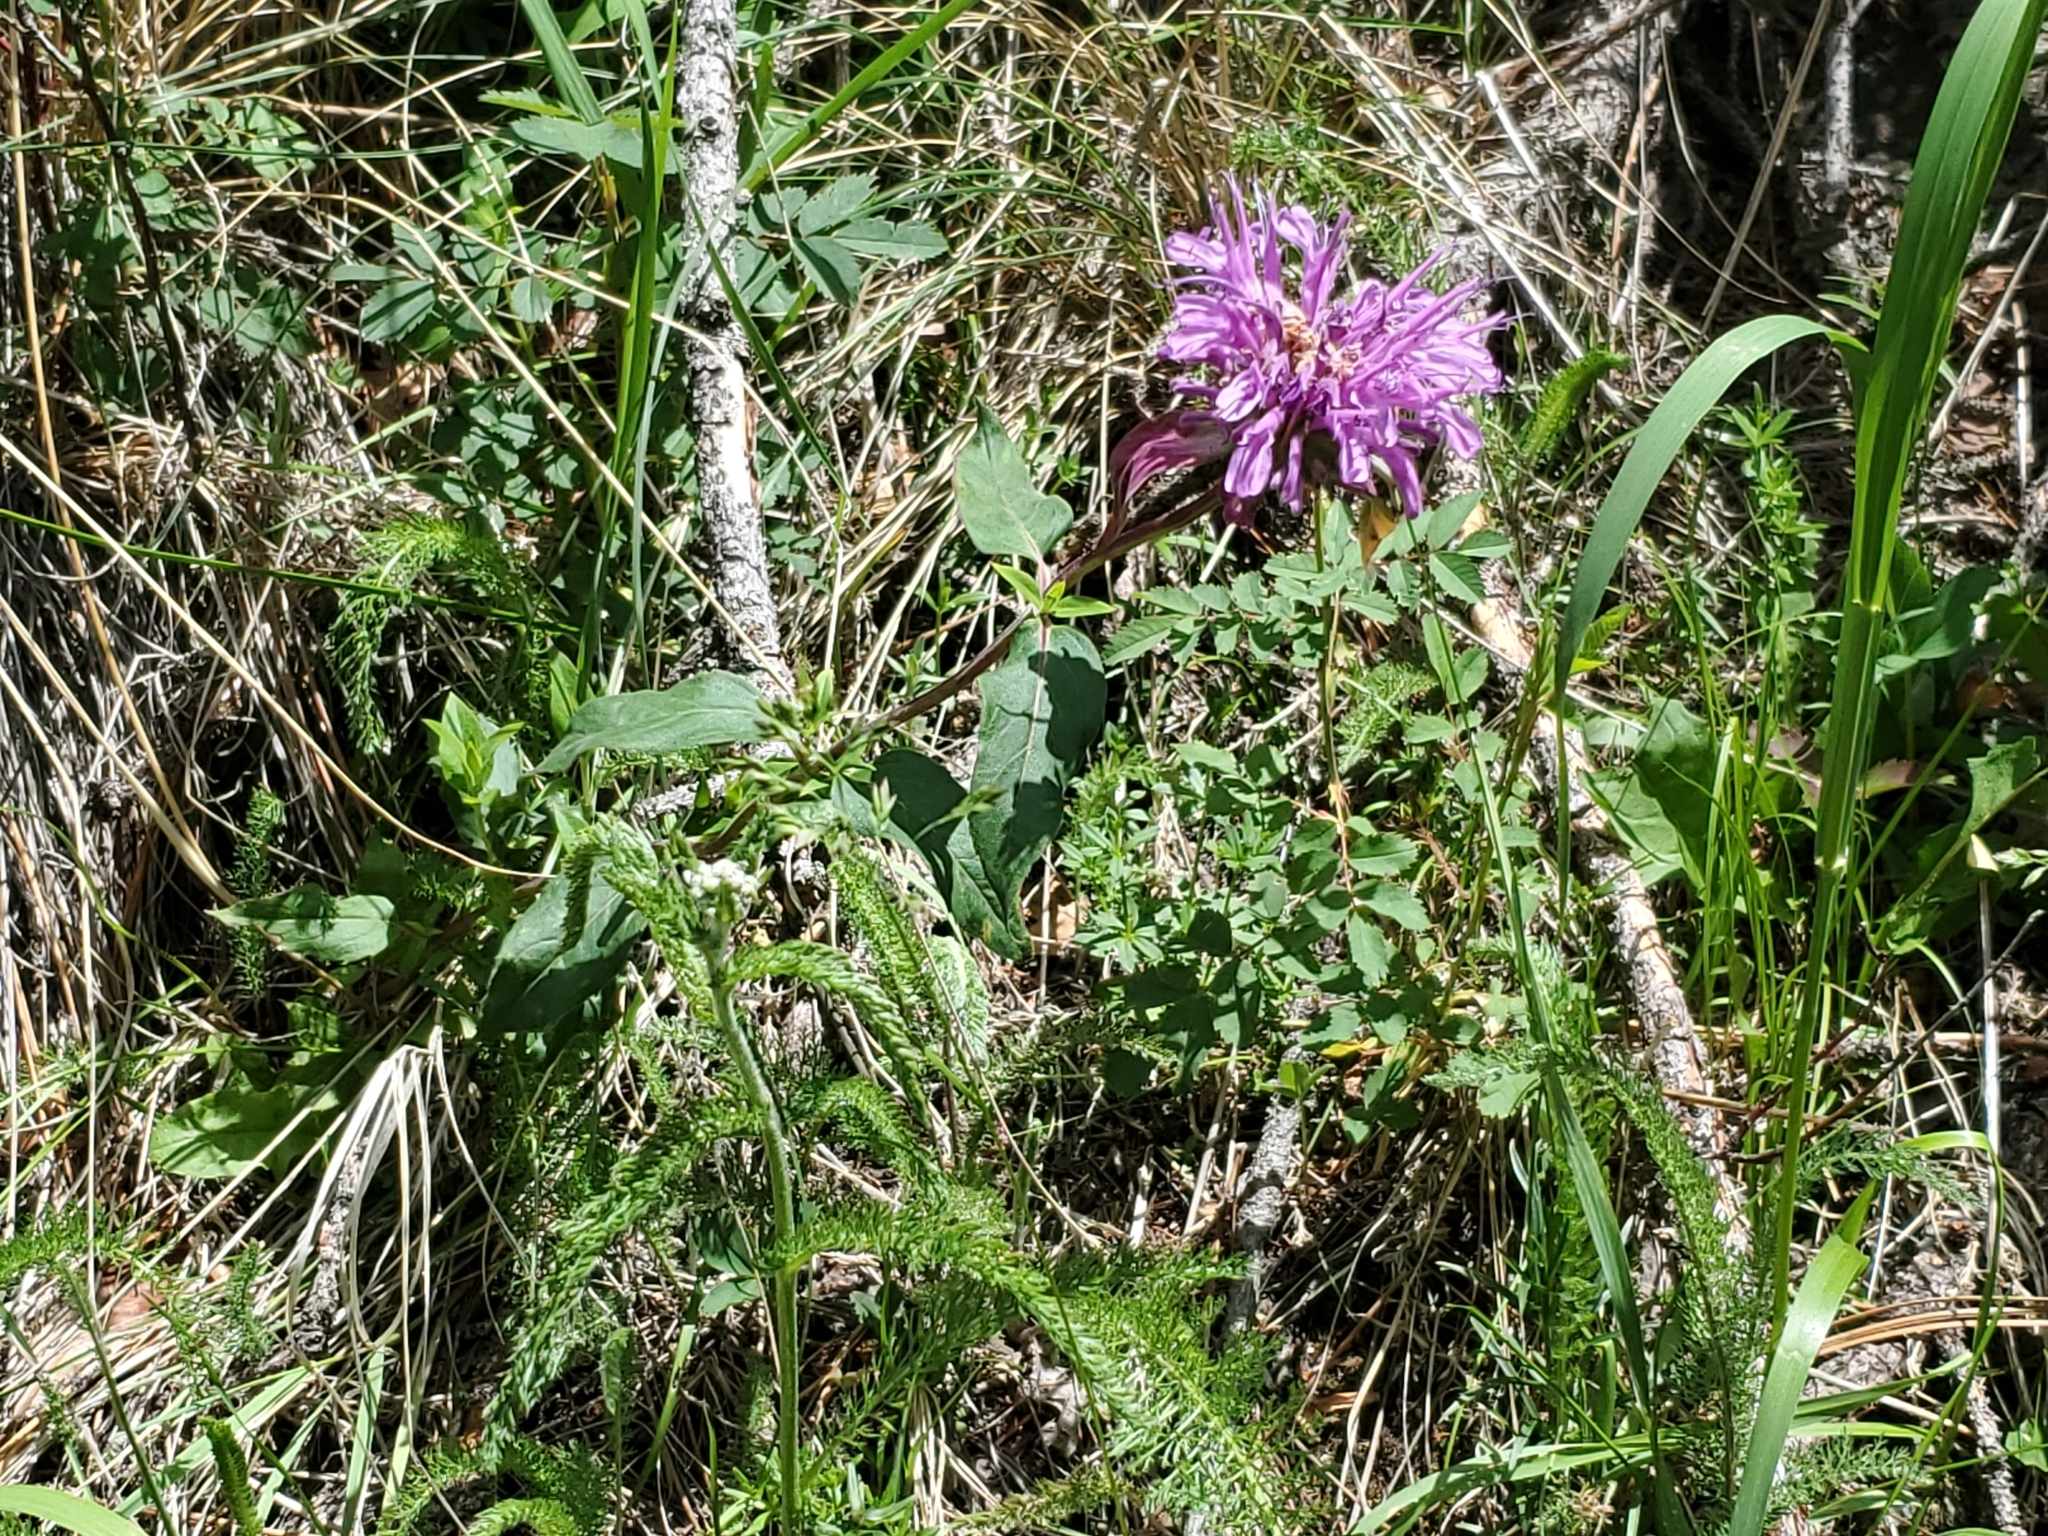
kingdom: Plantae
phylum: Tracheophyta
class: Magnoliopsida
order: Lamiales
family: Lamiaceae
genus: Monarda
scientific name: Monarda fistulosa
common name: Purple beebalm
